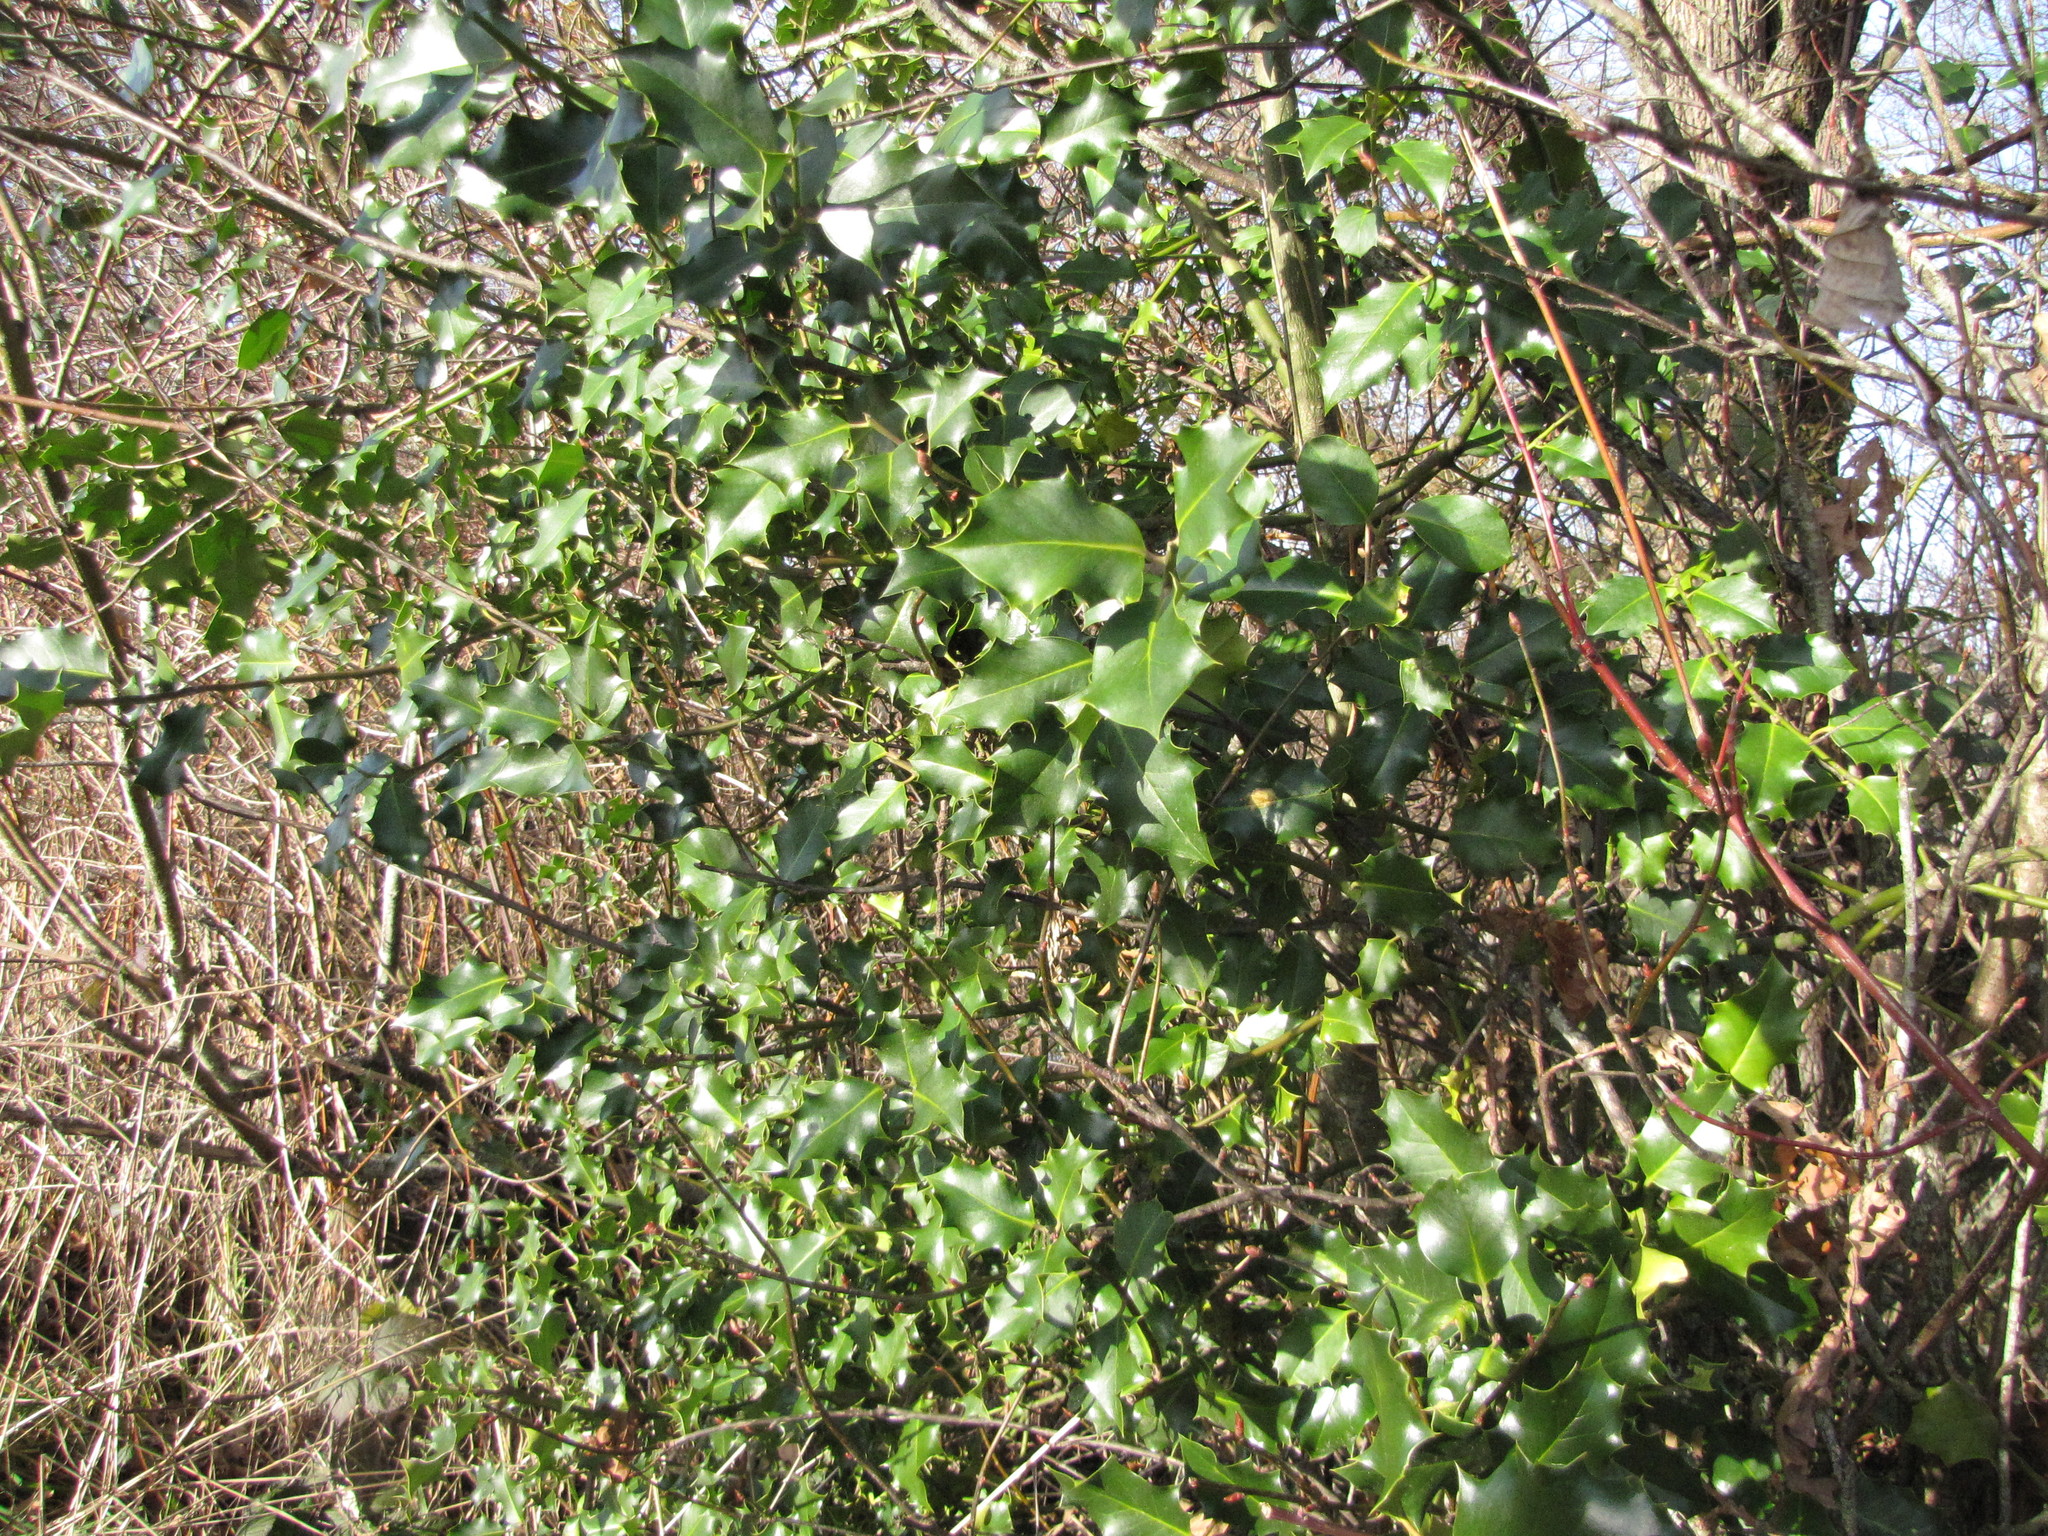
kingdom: Plantae
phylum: Tracheophyta
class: Magnoliopsida
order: Aquifoliales
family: Aquifoliaceae
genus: Ilex
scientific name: Ilex aquifolium
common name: English holly
